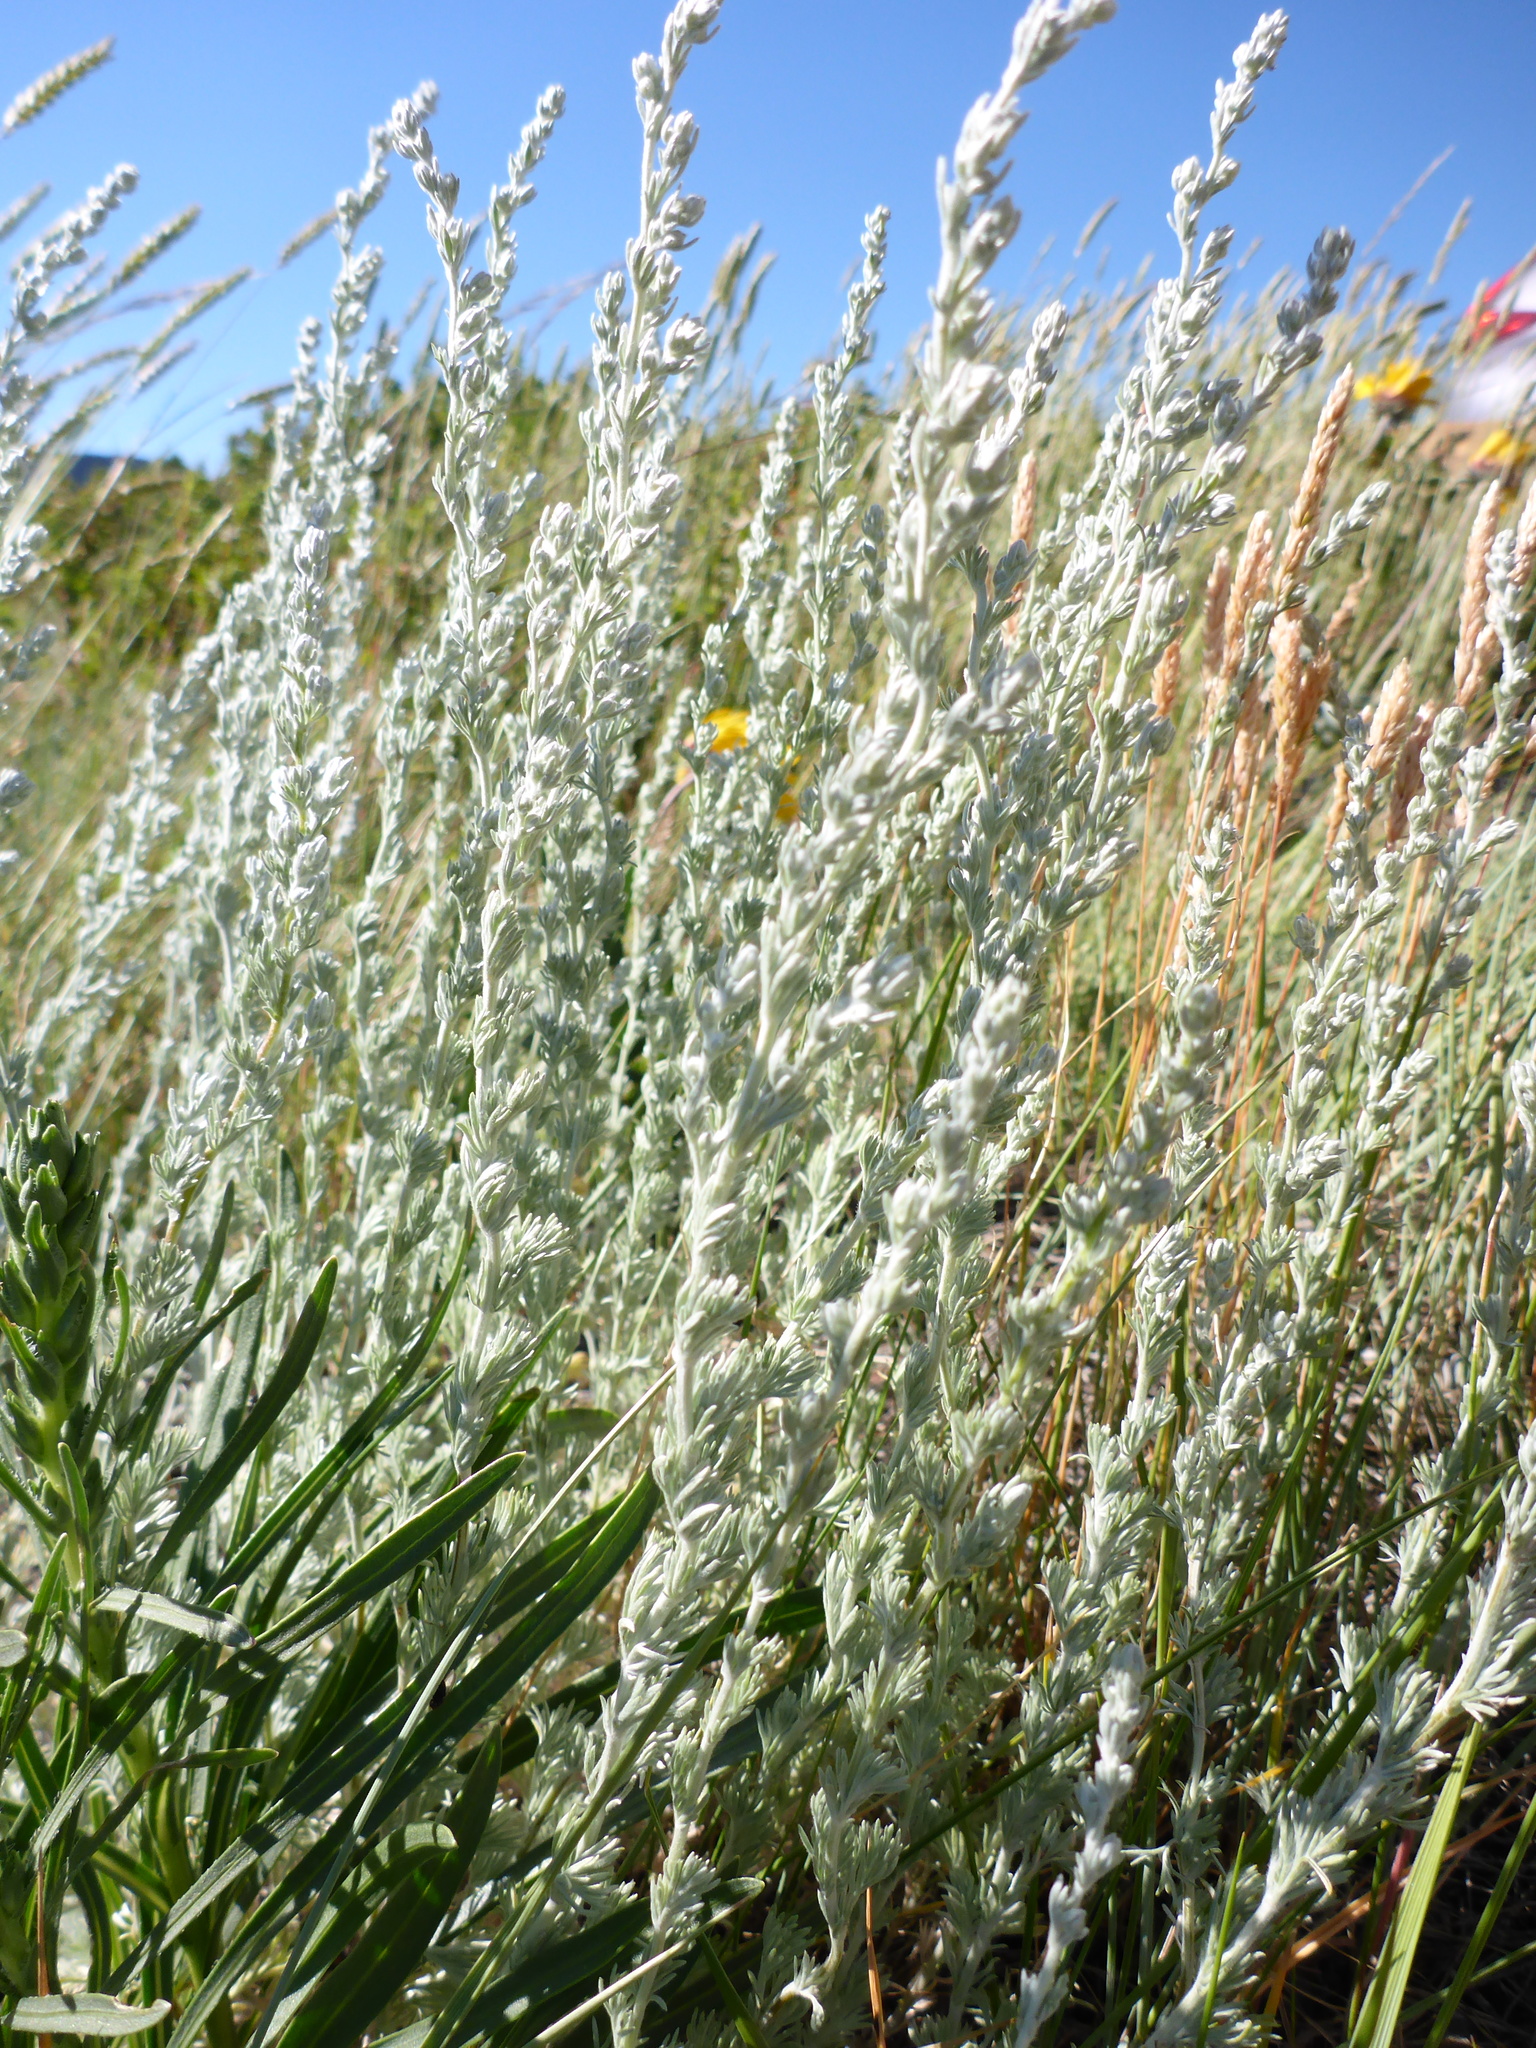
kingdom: Plantae
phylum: Tracheophyta
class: Magnoliopsida
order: Asterales
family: Asteraceae
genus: Artemisia
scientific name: Artemisia frigida
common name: Prairie sagewort
